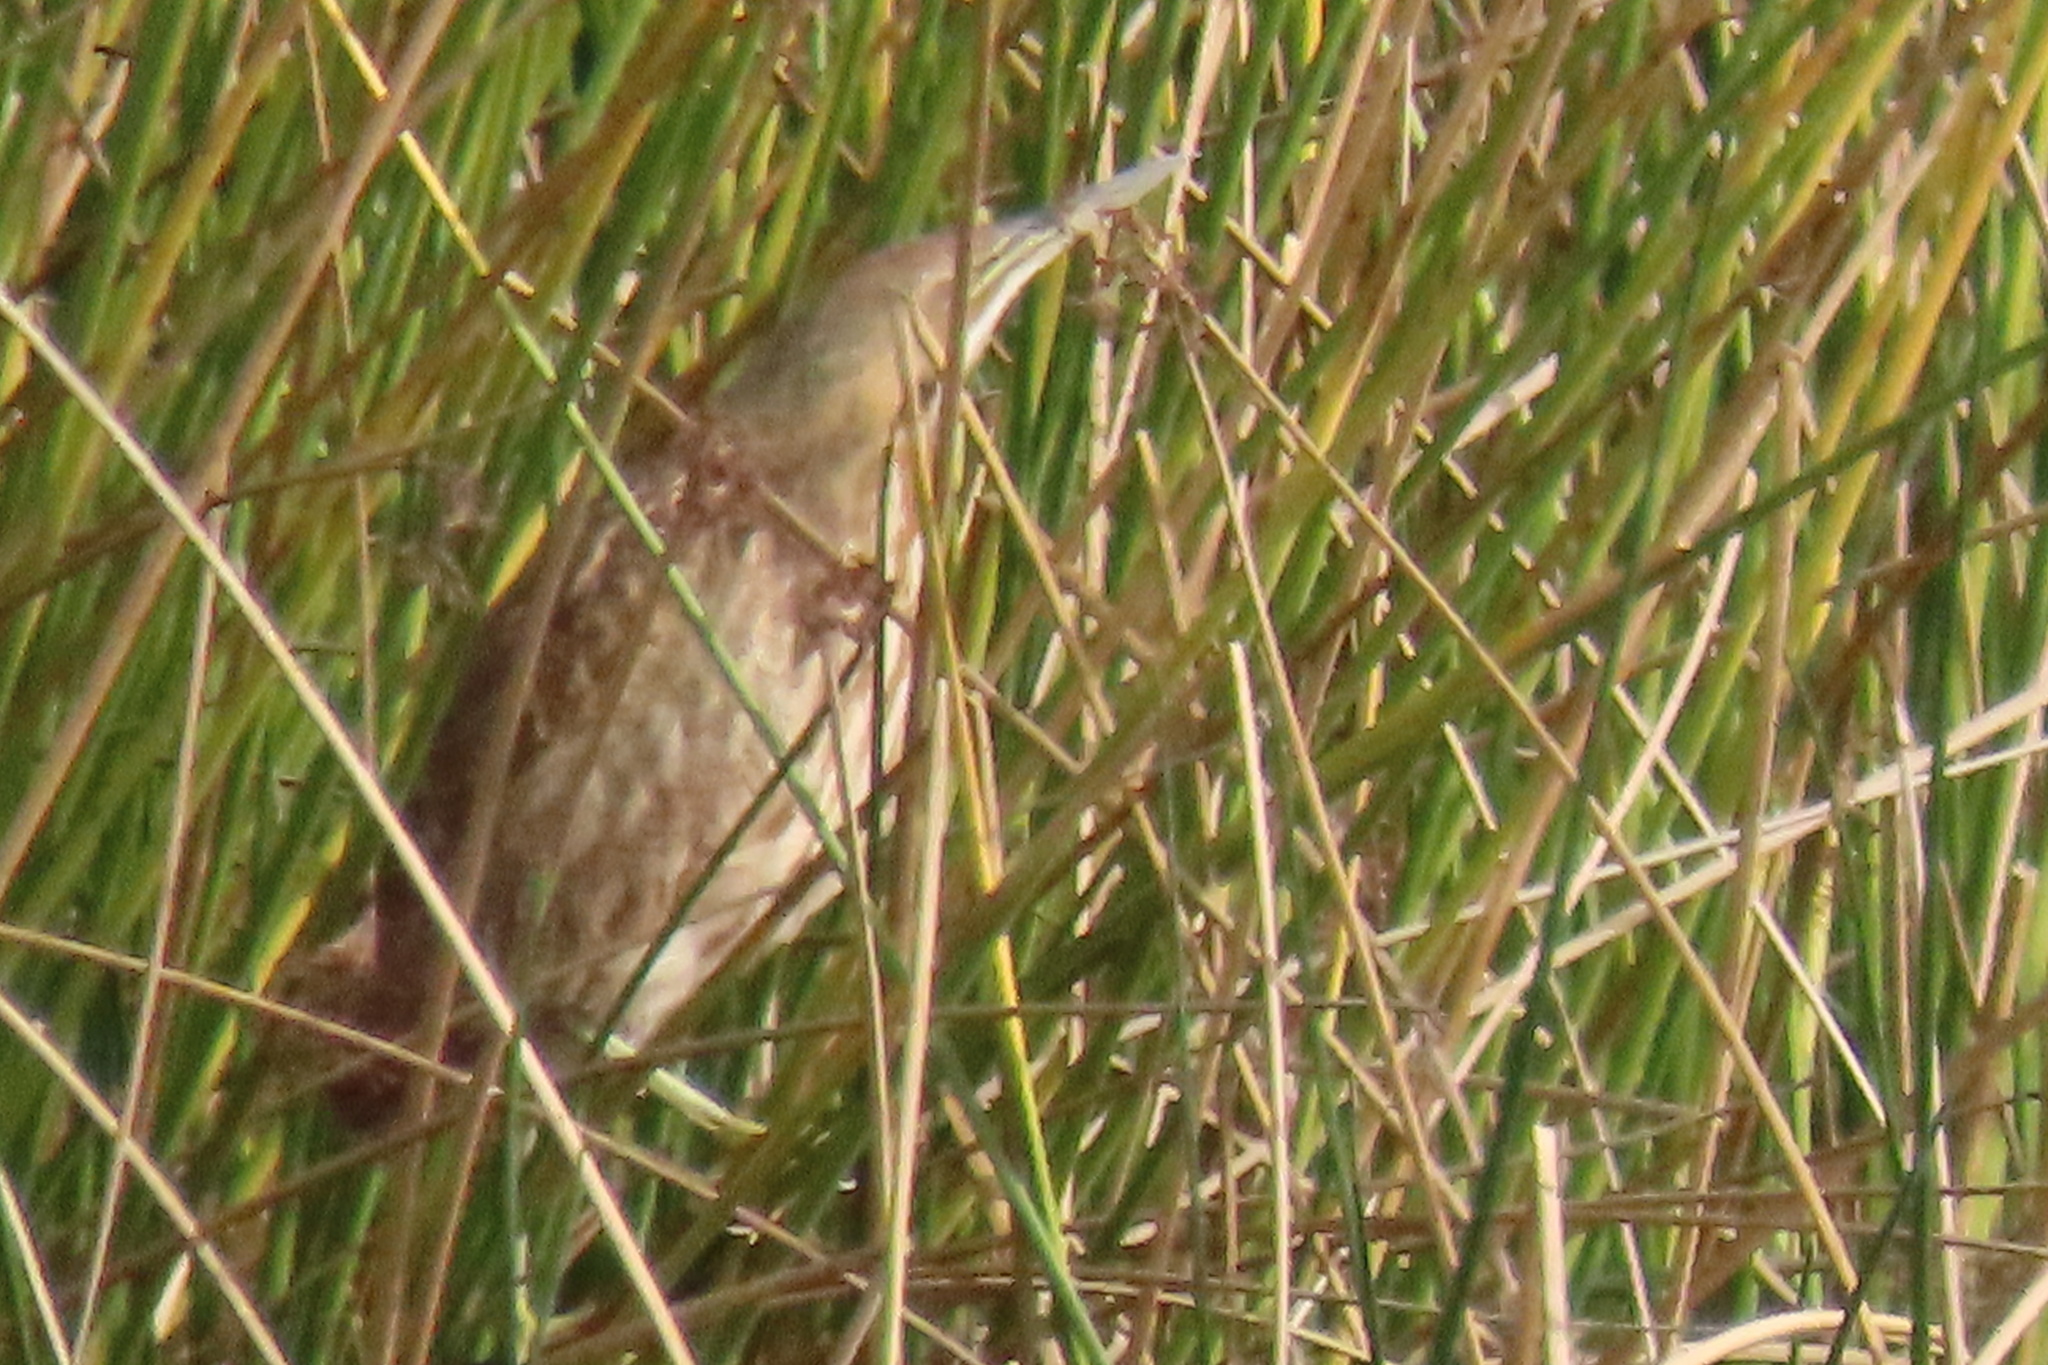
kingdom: Animalia
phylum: Chordata
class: Aves
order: Pelecaniformes
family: Ardeidae
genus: Botaurus
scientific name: Botaurus lentiginosus
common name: American bittern
